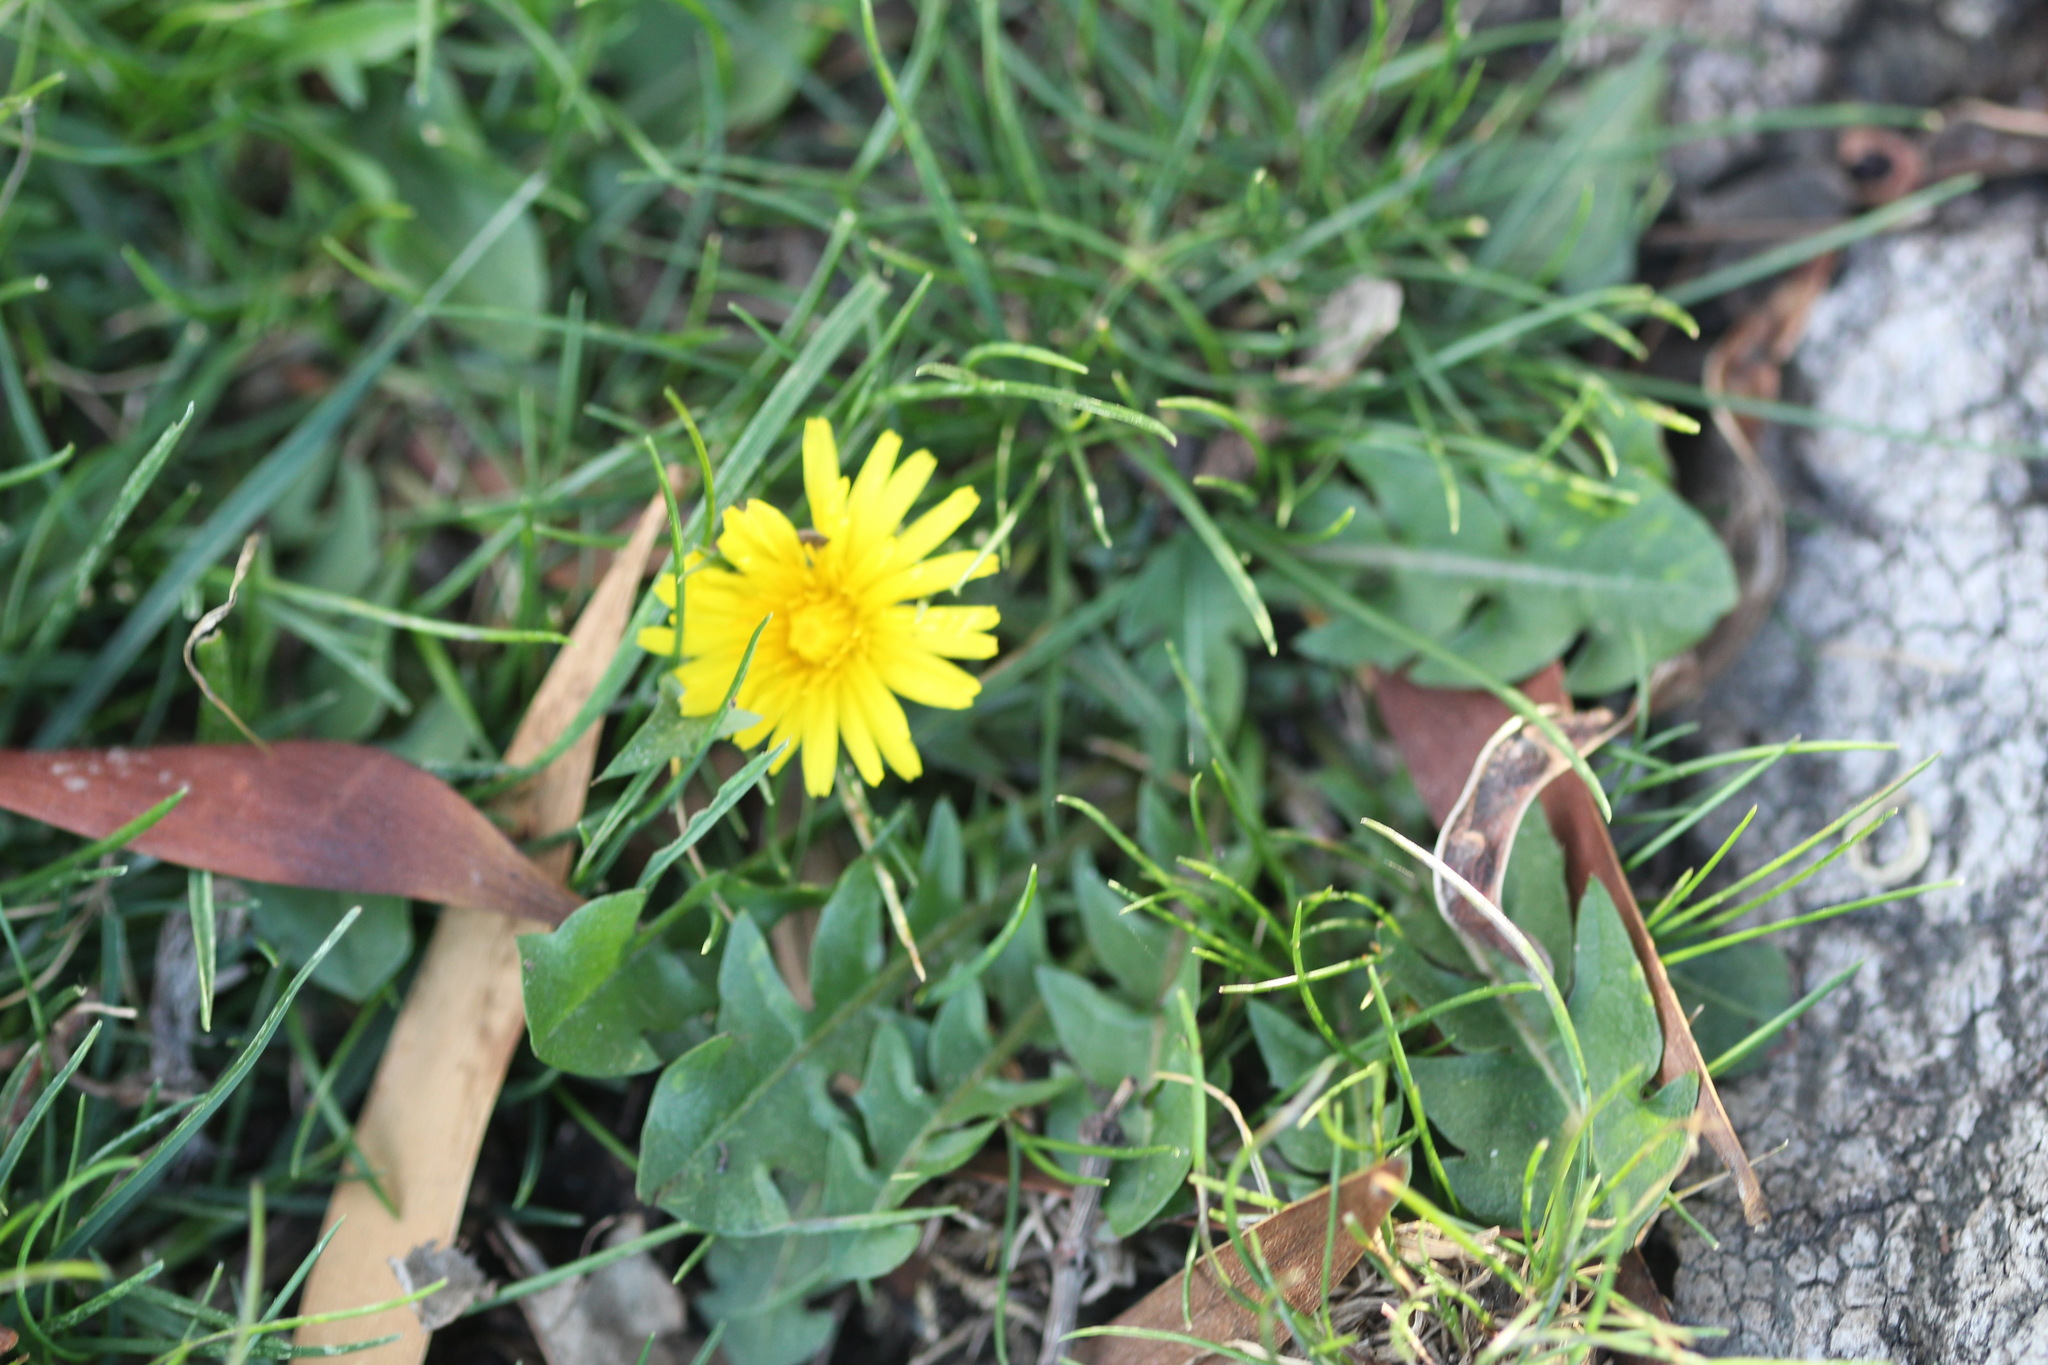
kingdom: Plantae
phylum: Tracheophyta
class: Magnoliopsida
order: Asterales
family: Asteraceae
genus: Taraxacum
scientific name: Taraxacum officinale
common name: Common dandelion
